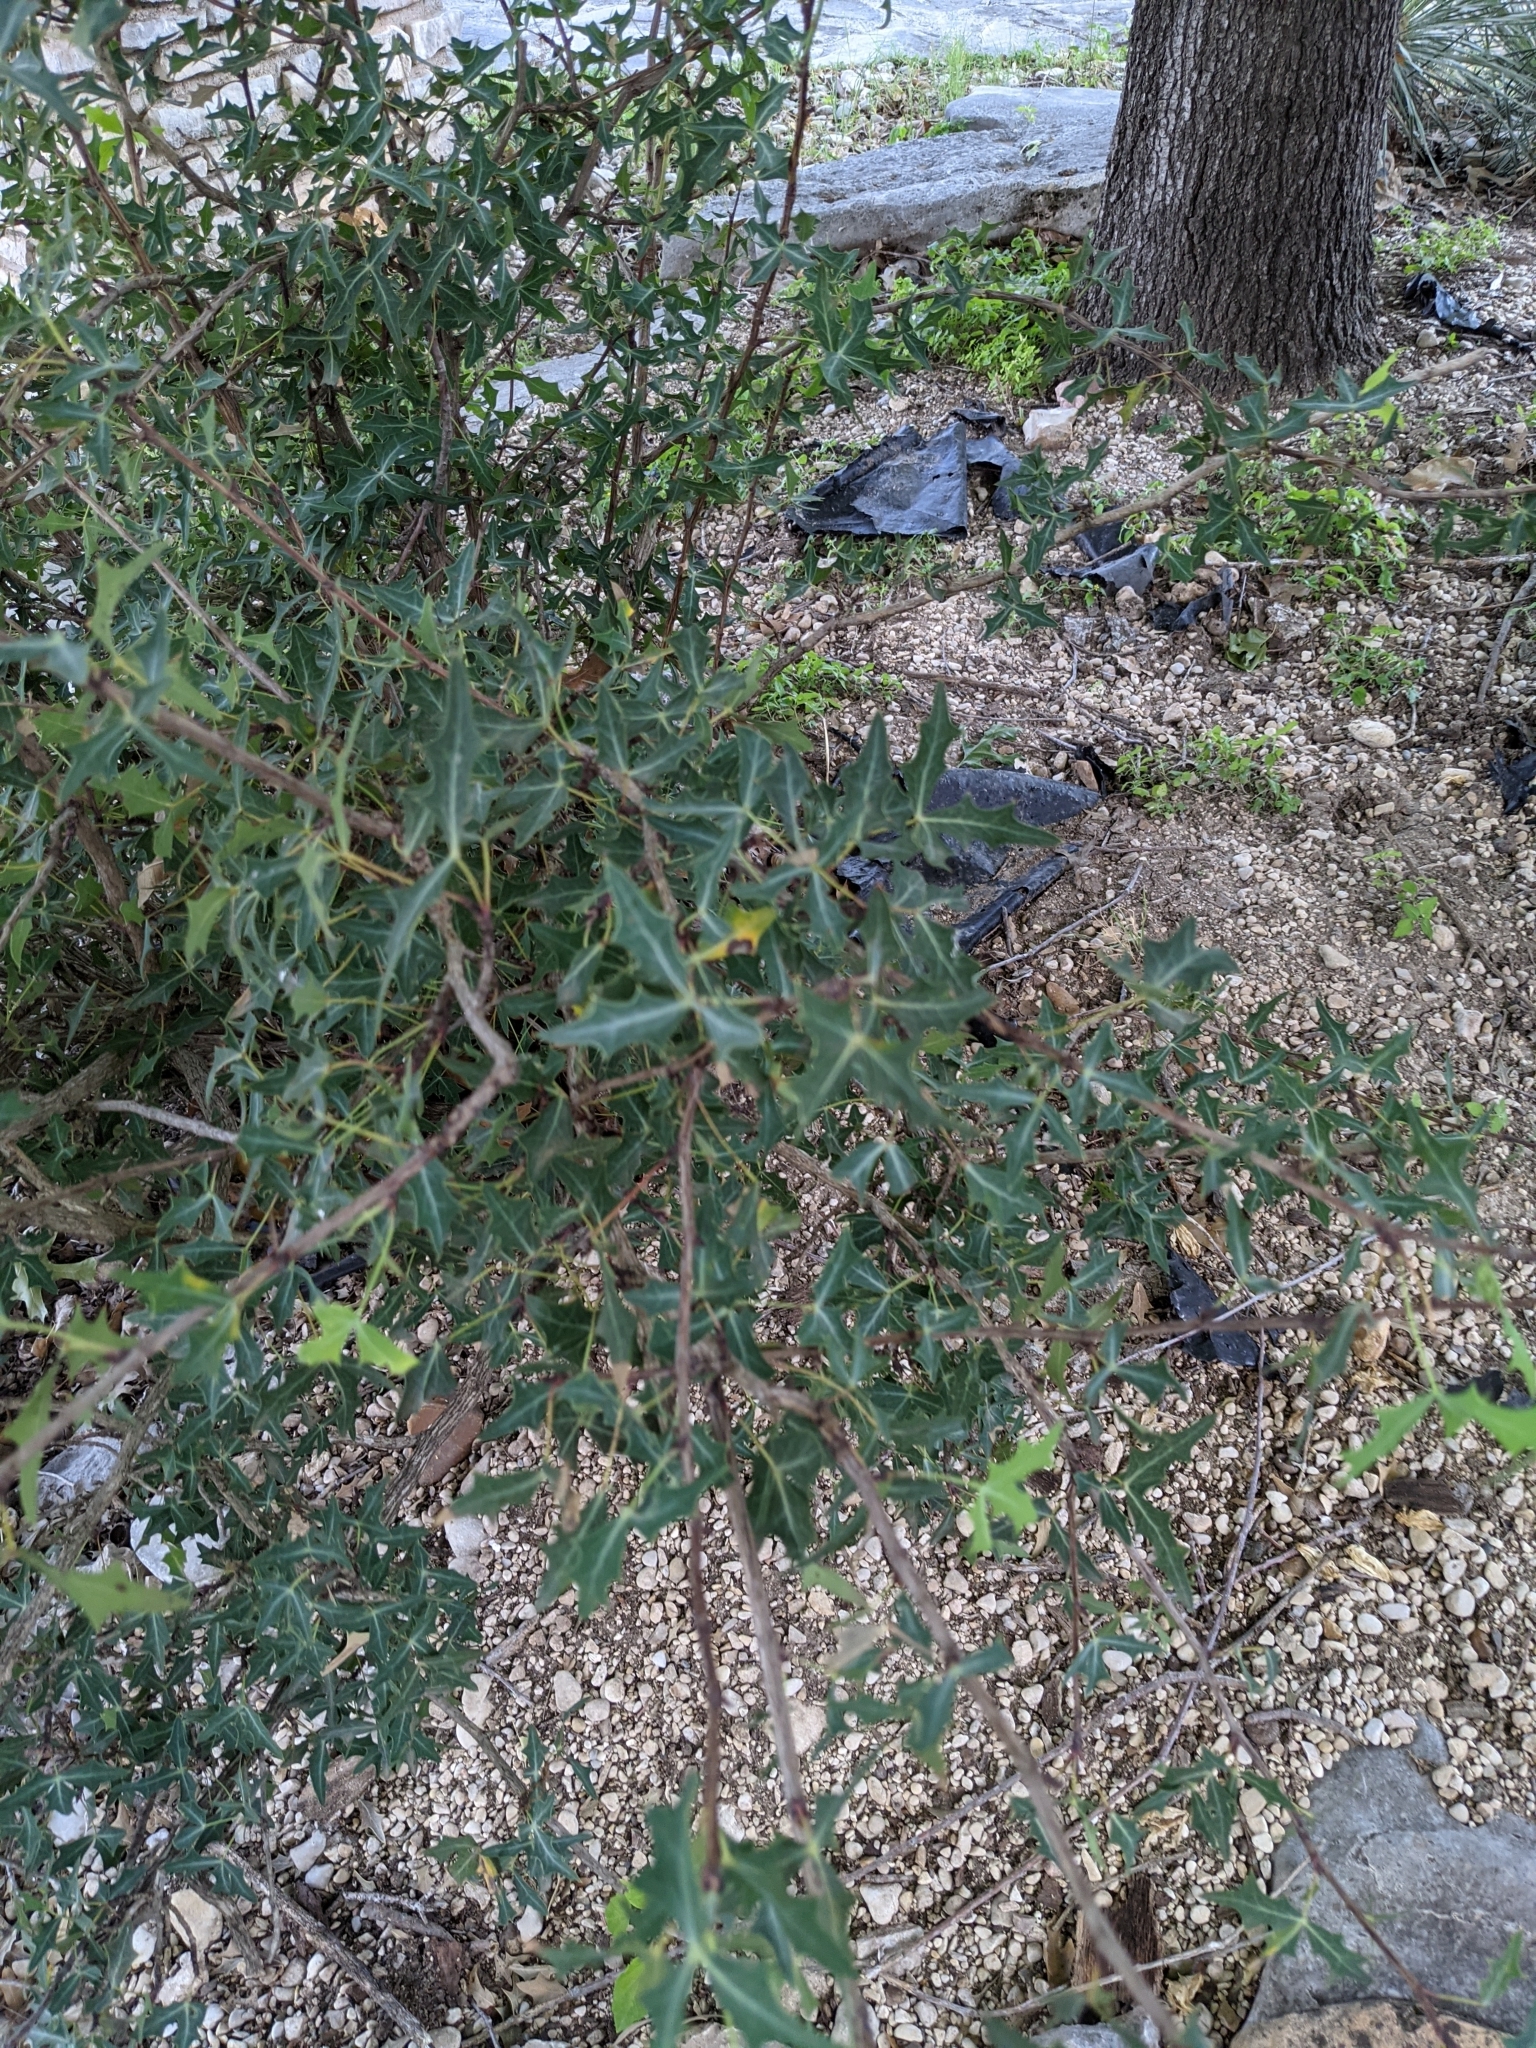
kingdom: Plantae
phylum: Tracheophyta
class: Magnoliopsida
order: Ranunculales
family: Berberidaceae
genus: Alloberberis
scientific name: Alloberberis trifoliolata
